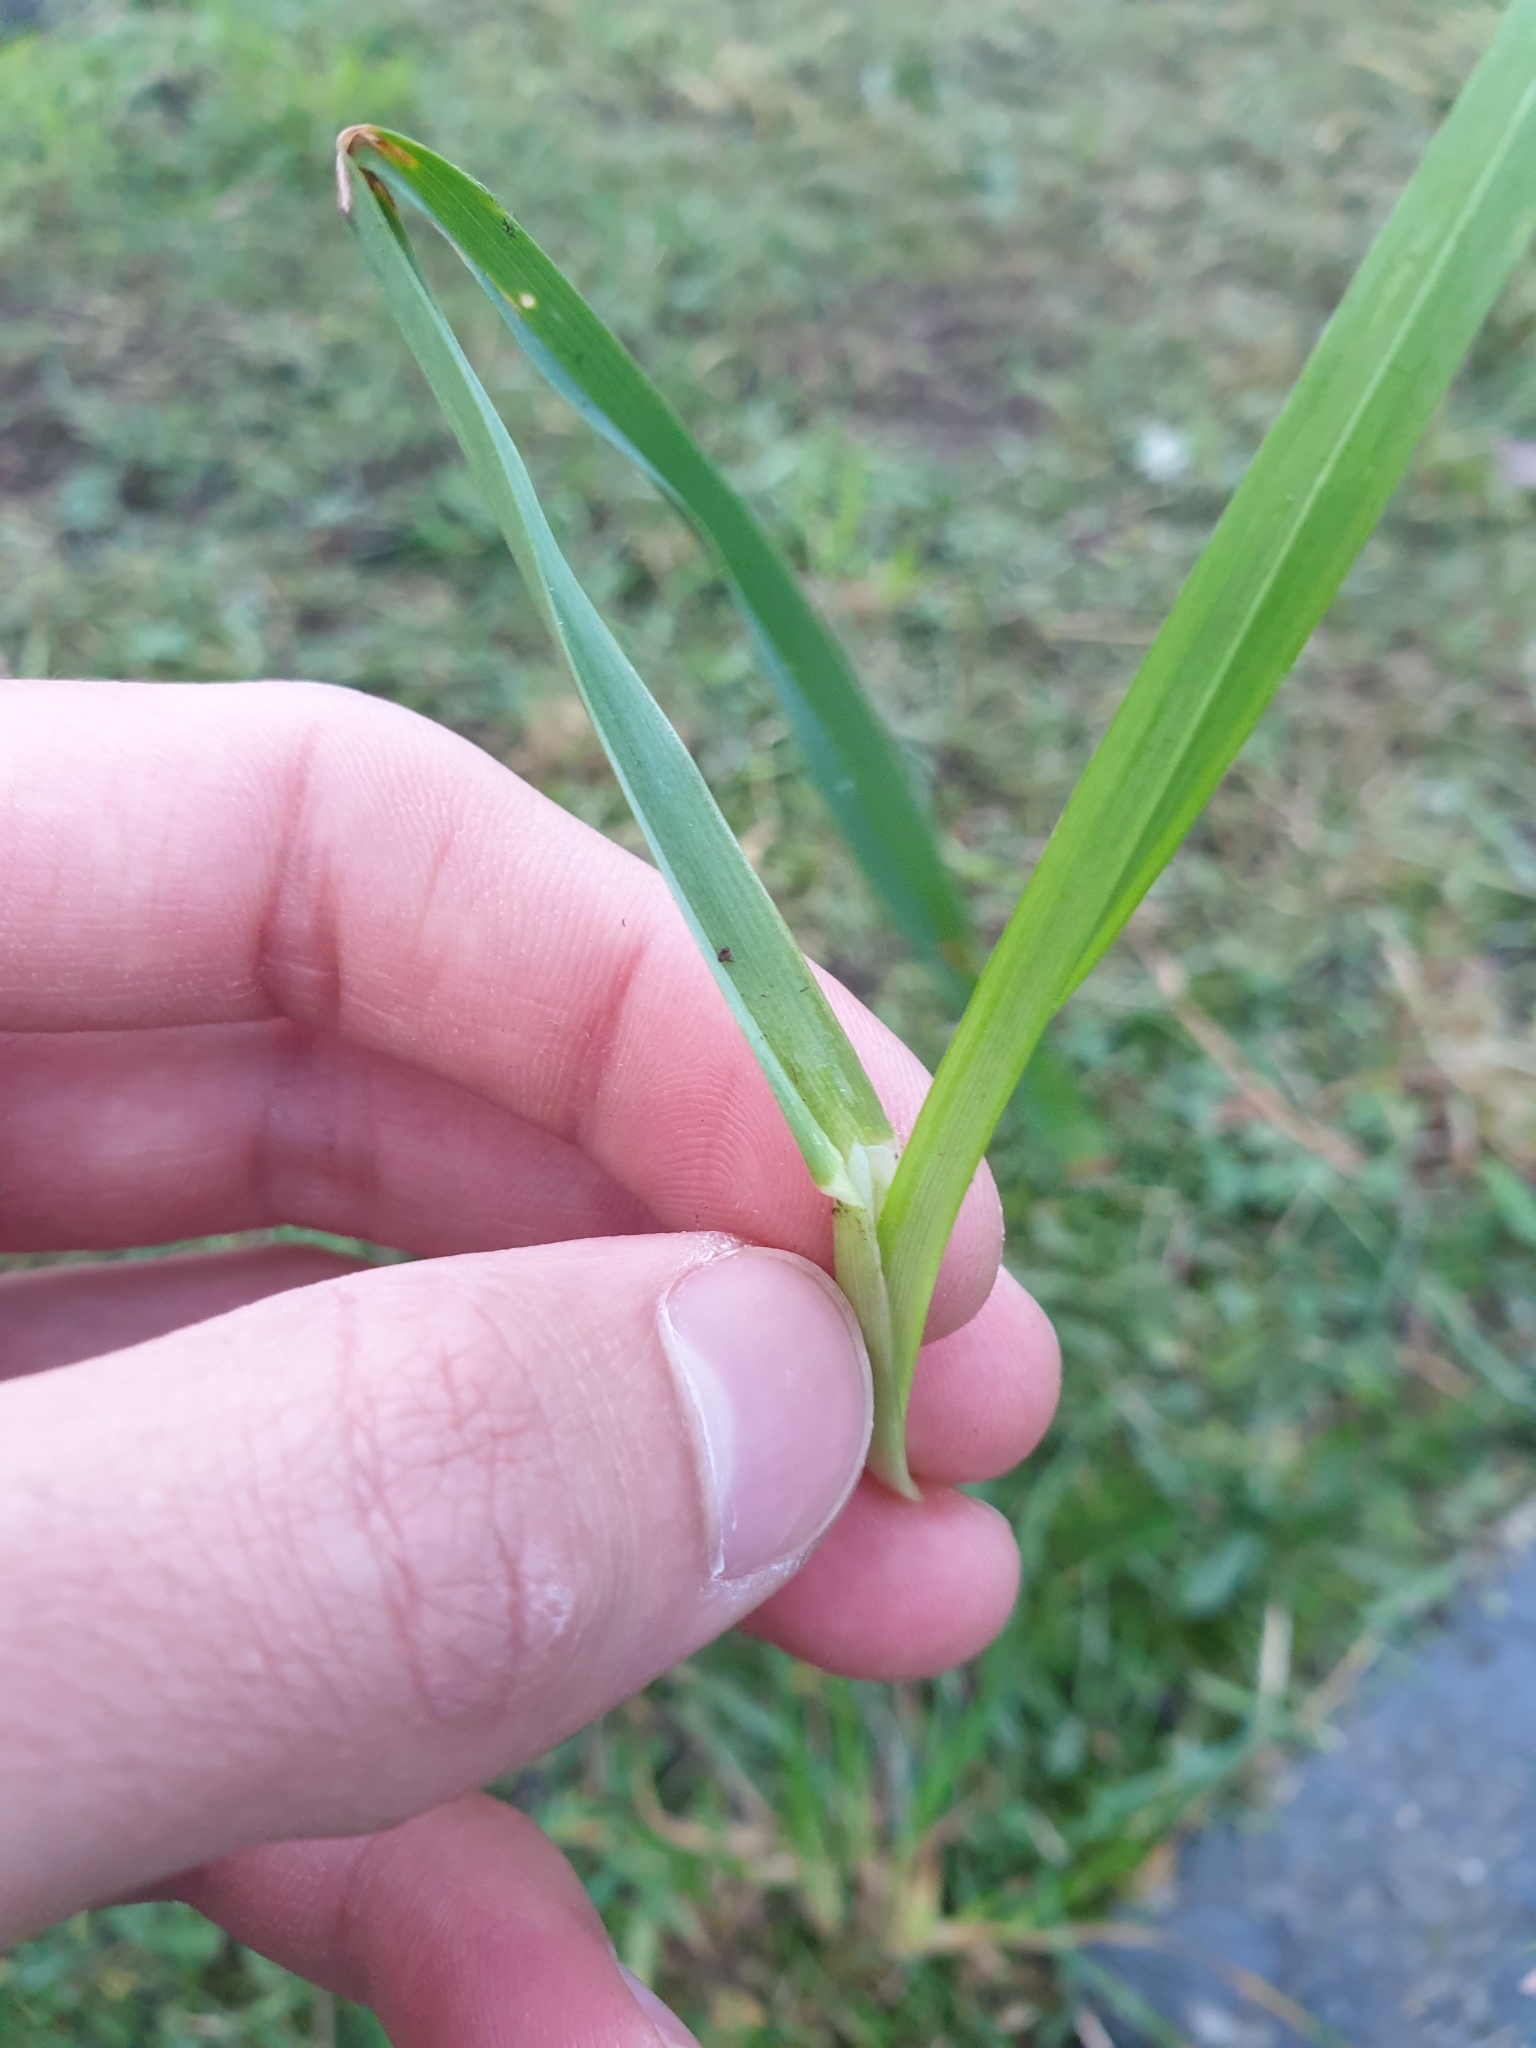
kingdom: Plantae
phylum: Tracheophyta
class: Liliopsida
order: Poales
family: Poaceae
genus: Dactylis
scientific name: Dactylis glomerata
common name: Orchardgrass
